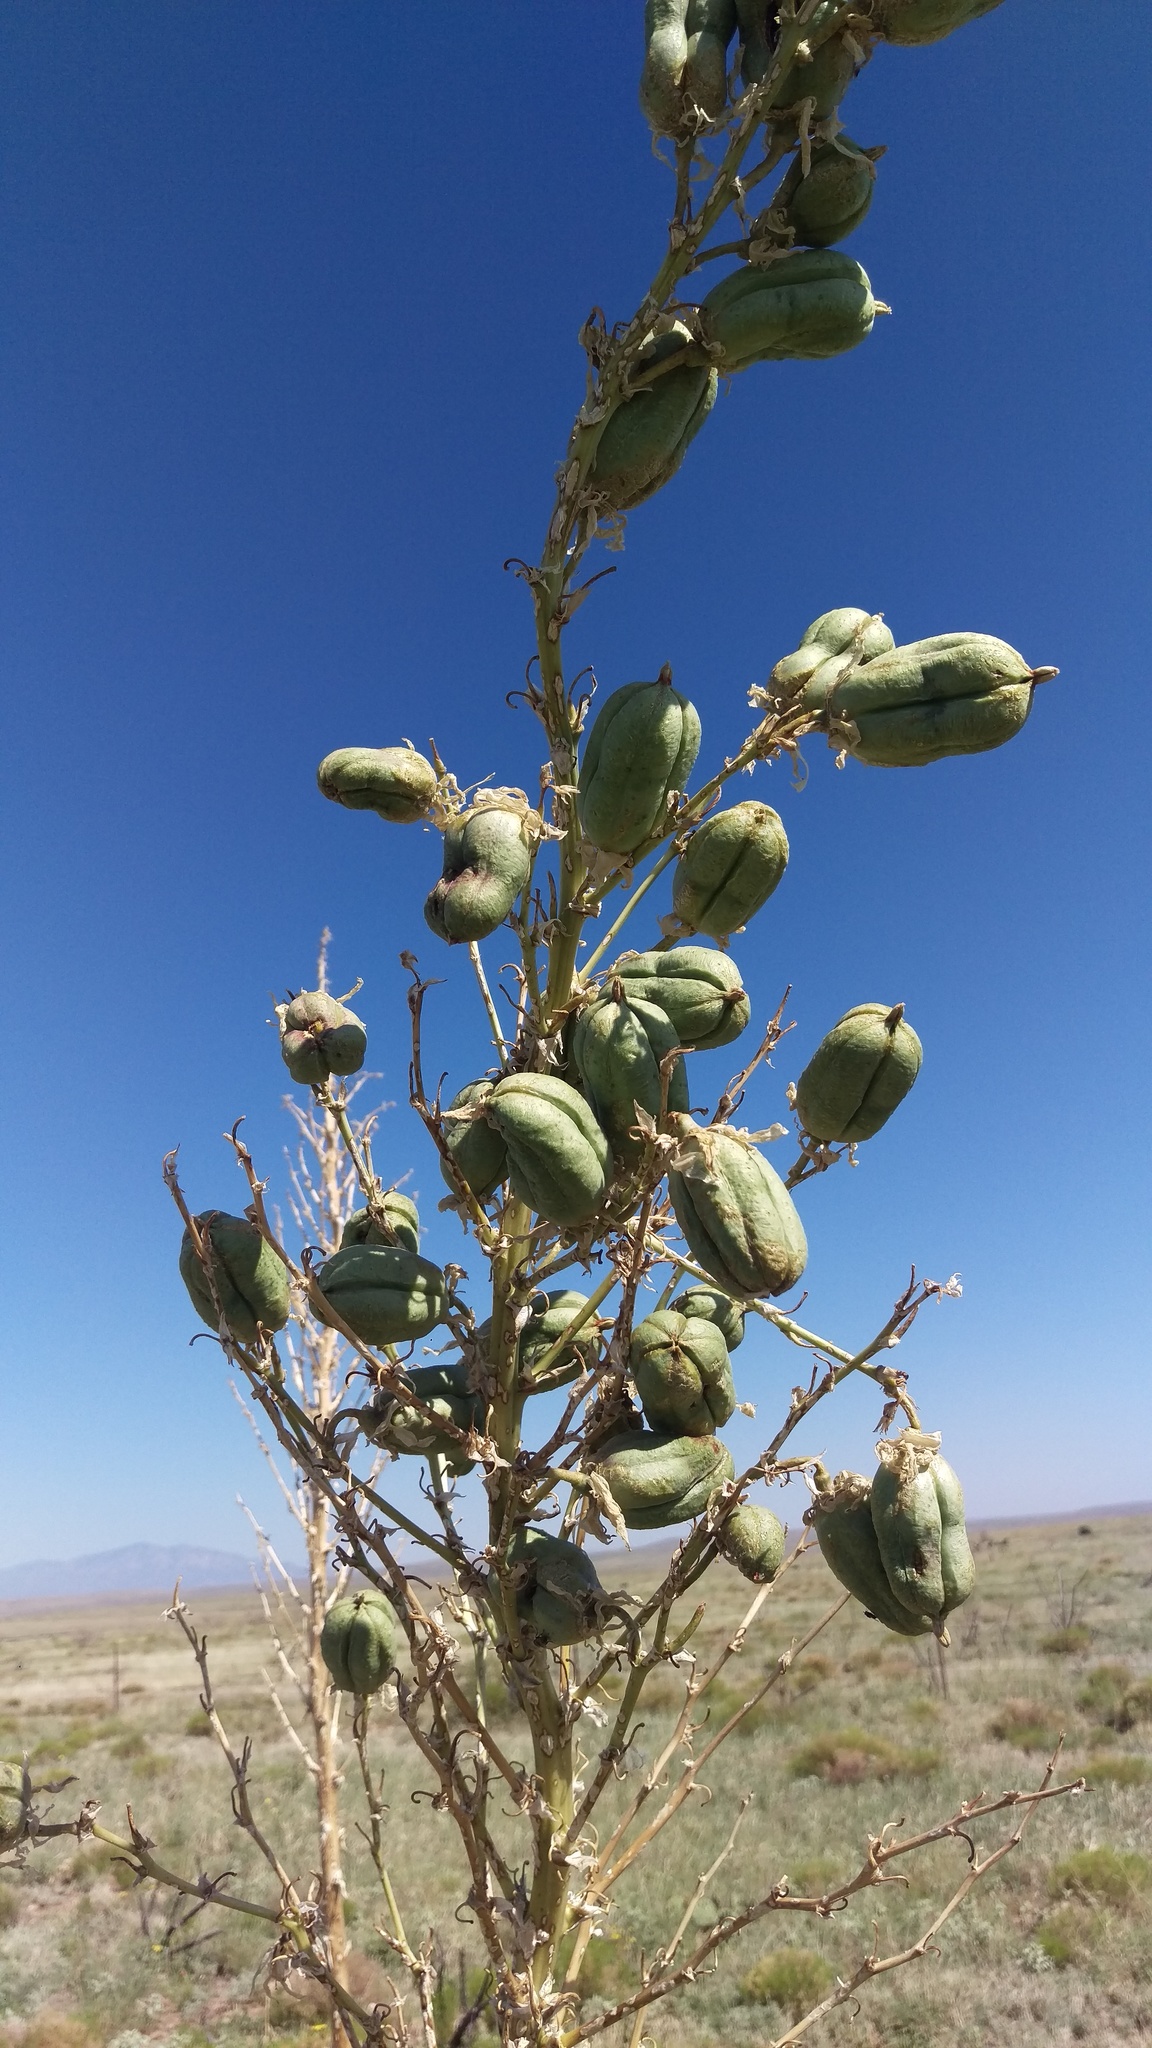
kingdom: Plantae
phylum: Tracheophyta
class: Liliopsida
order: Asparagales
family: Asparagaceae
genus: Yucca
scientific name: Yucca elata
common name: Palmella
